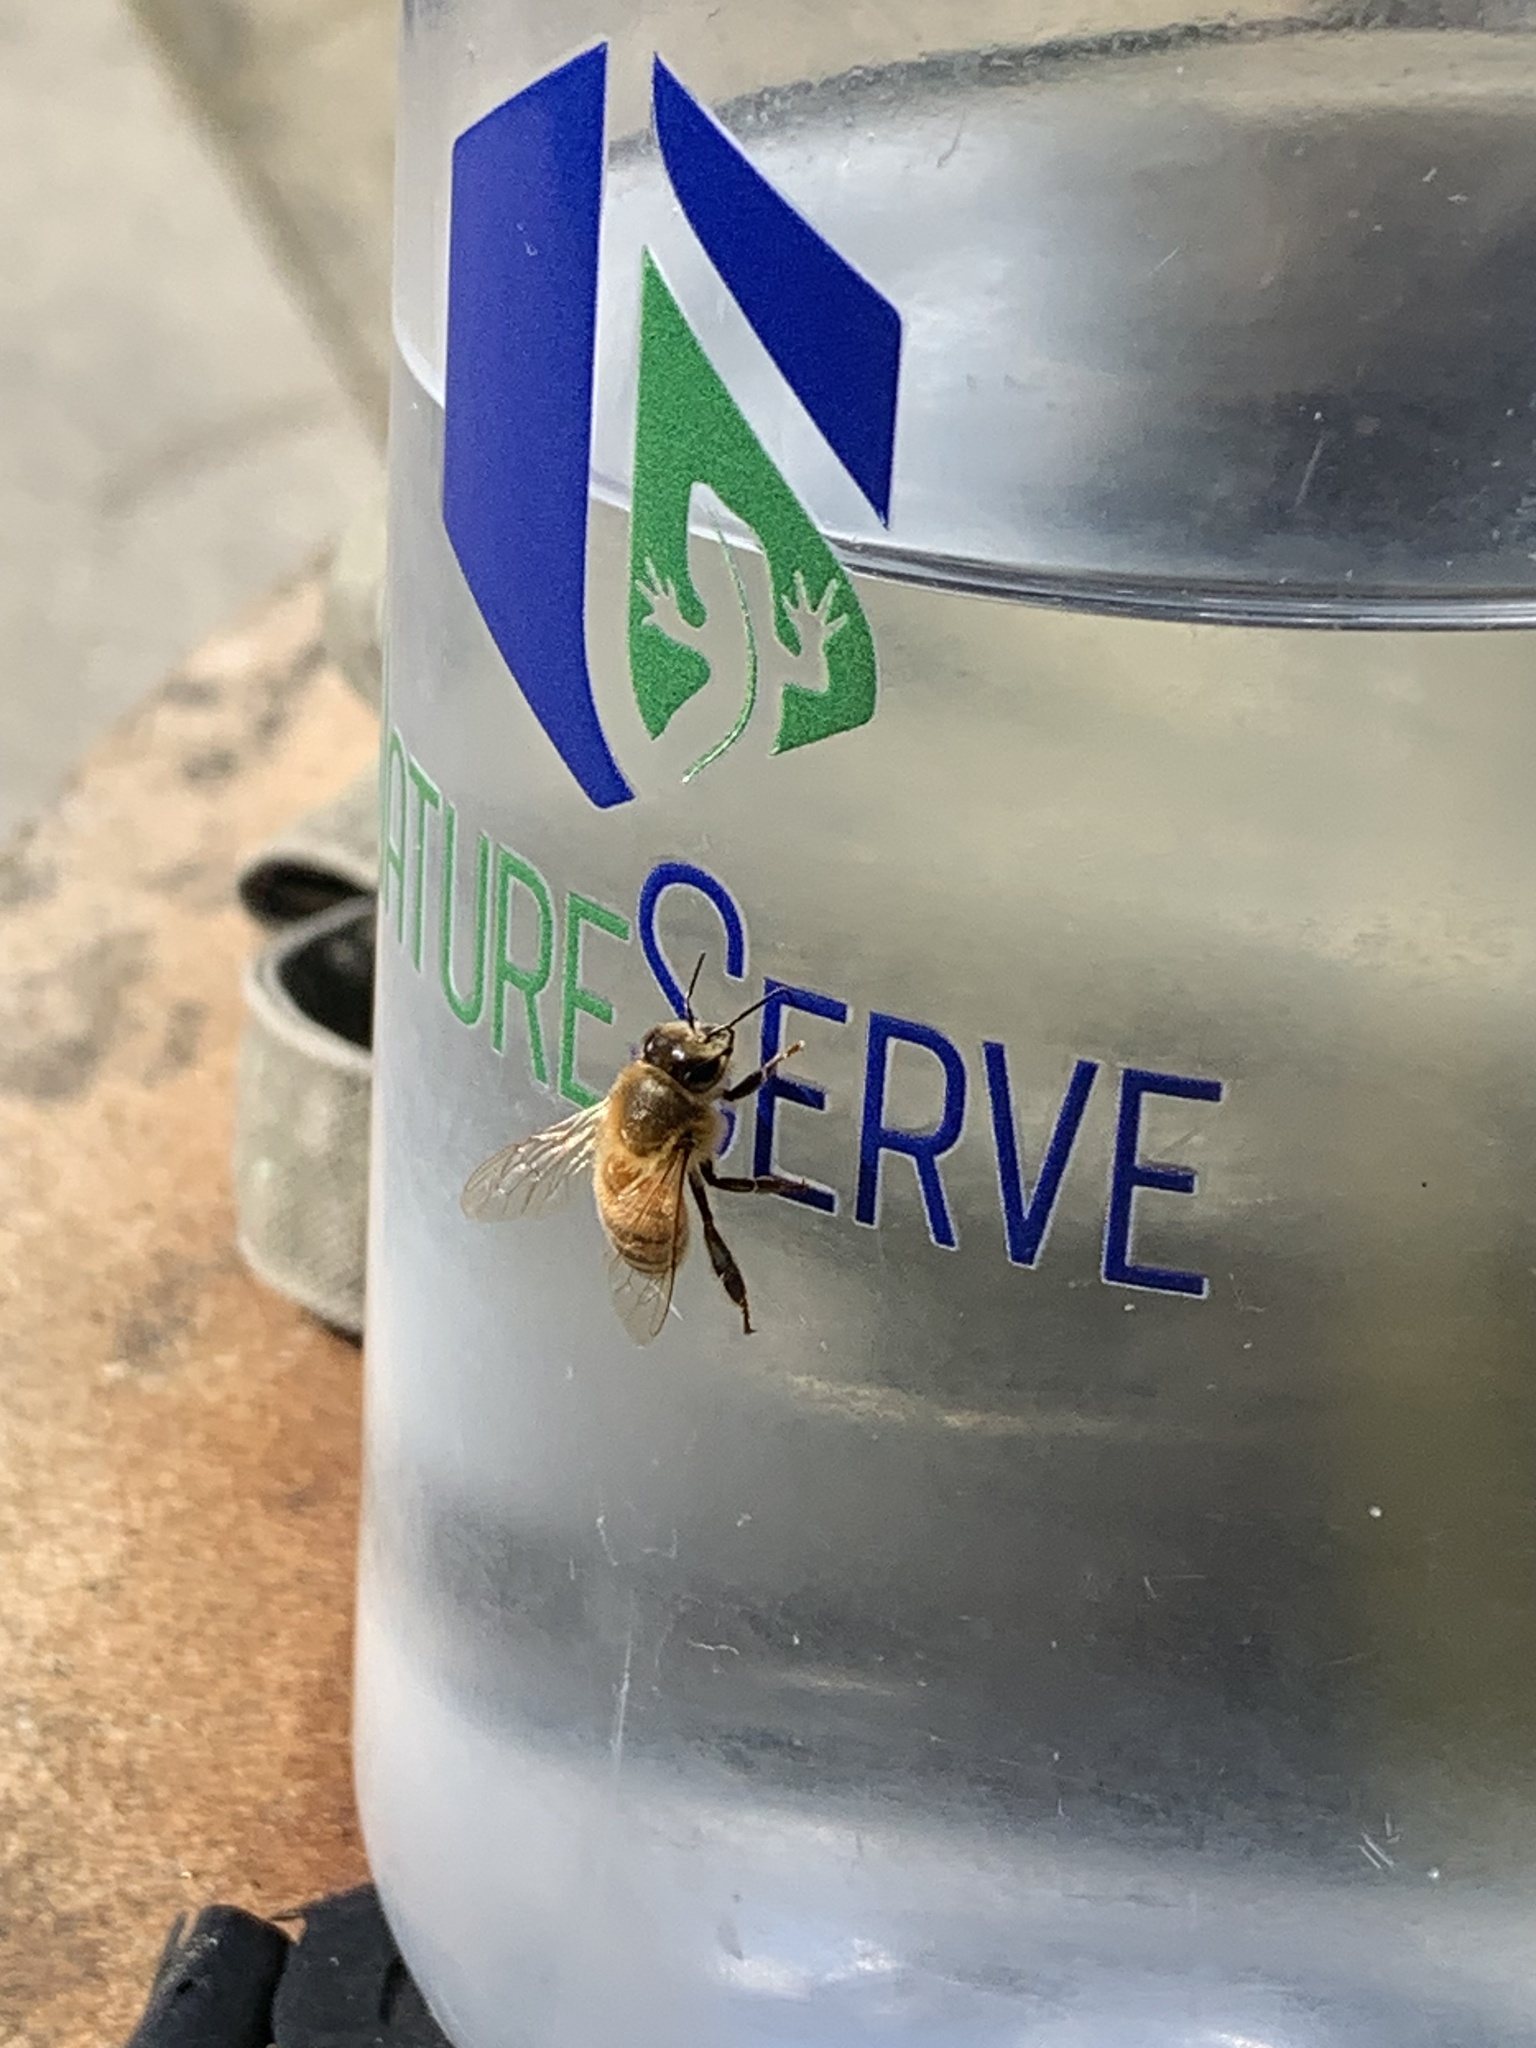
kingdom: Animalia
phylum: Arthropoda
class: Insecta
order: Hymenoptera
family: Apidae
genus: Apis
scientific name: Apis mellifera
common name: Honey bee
